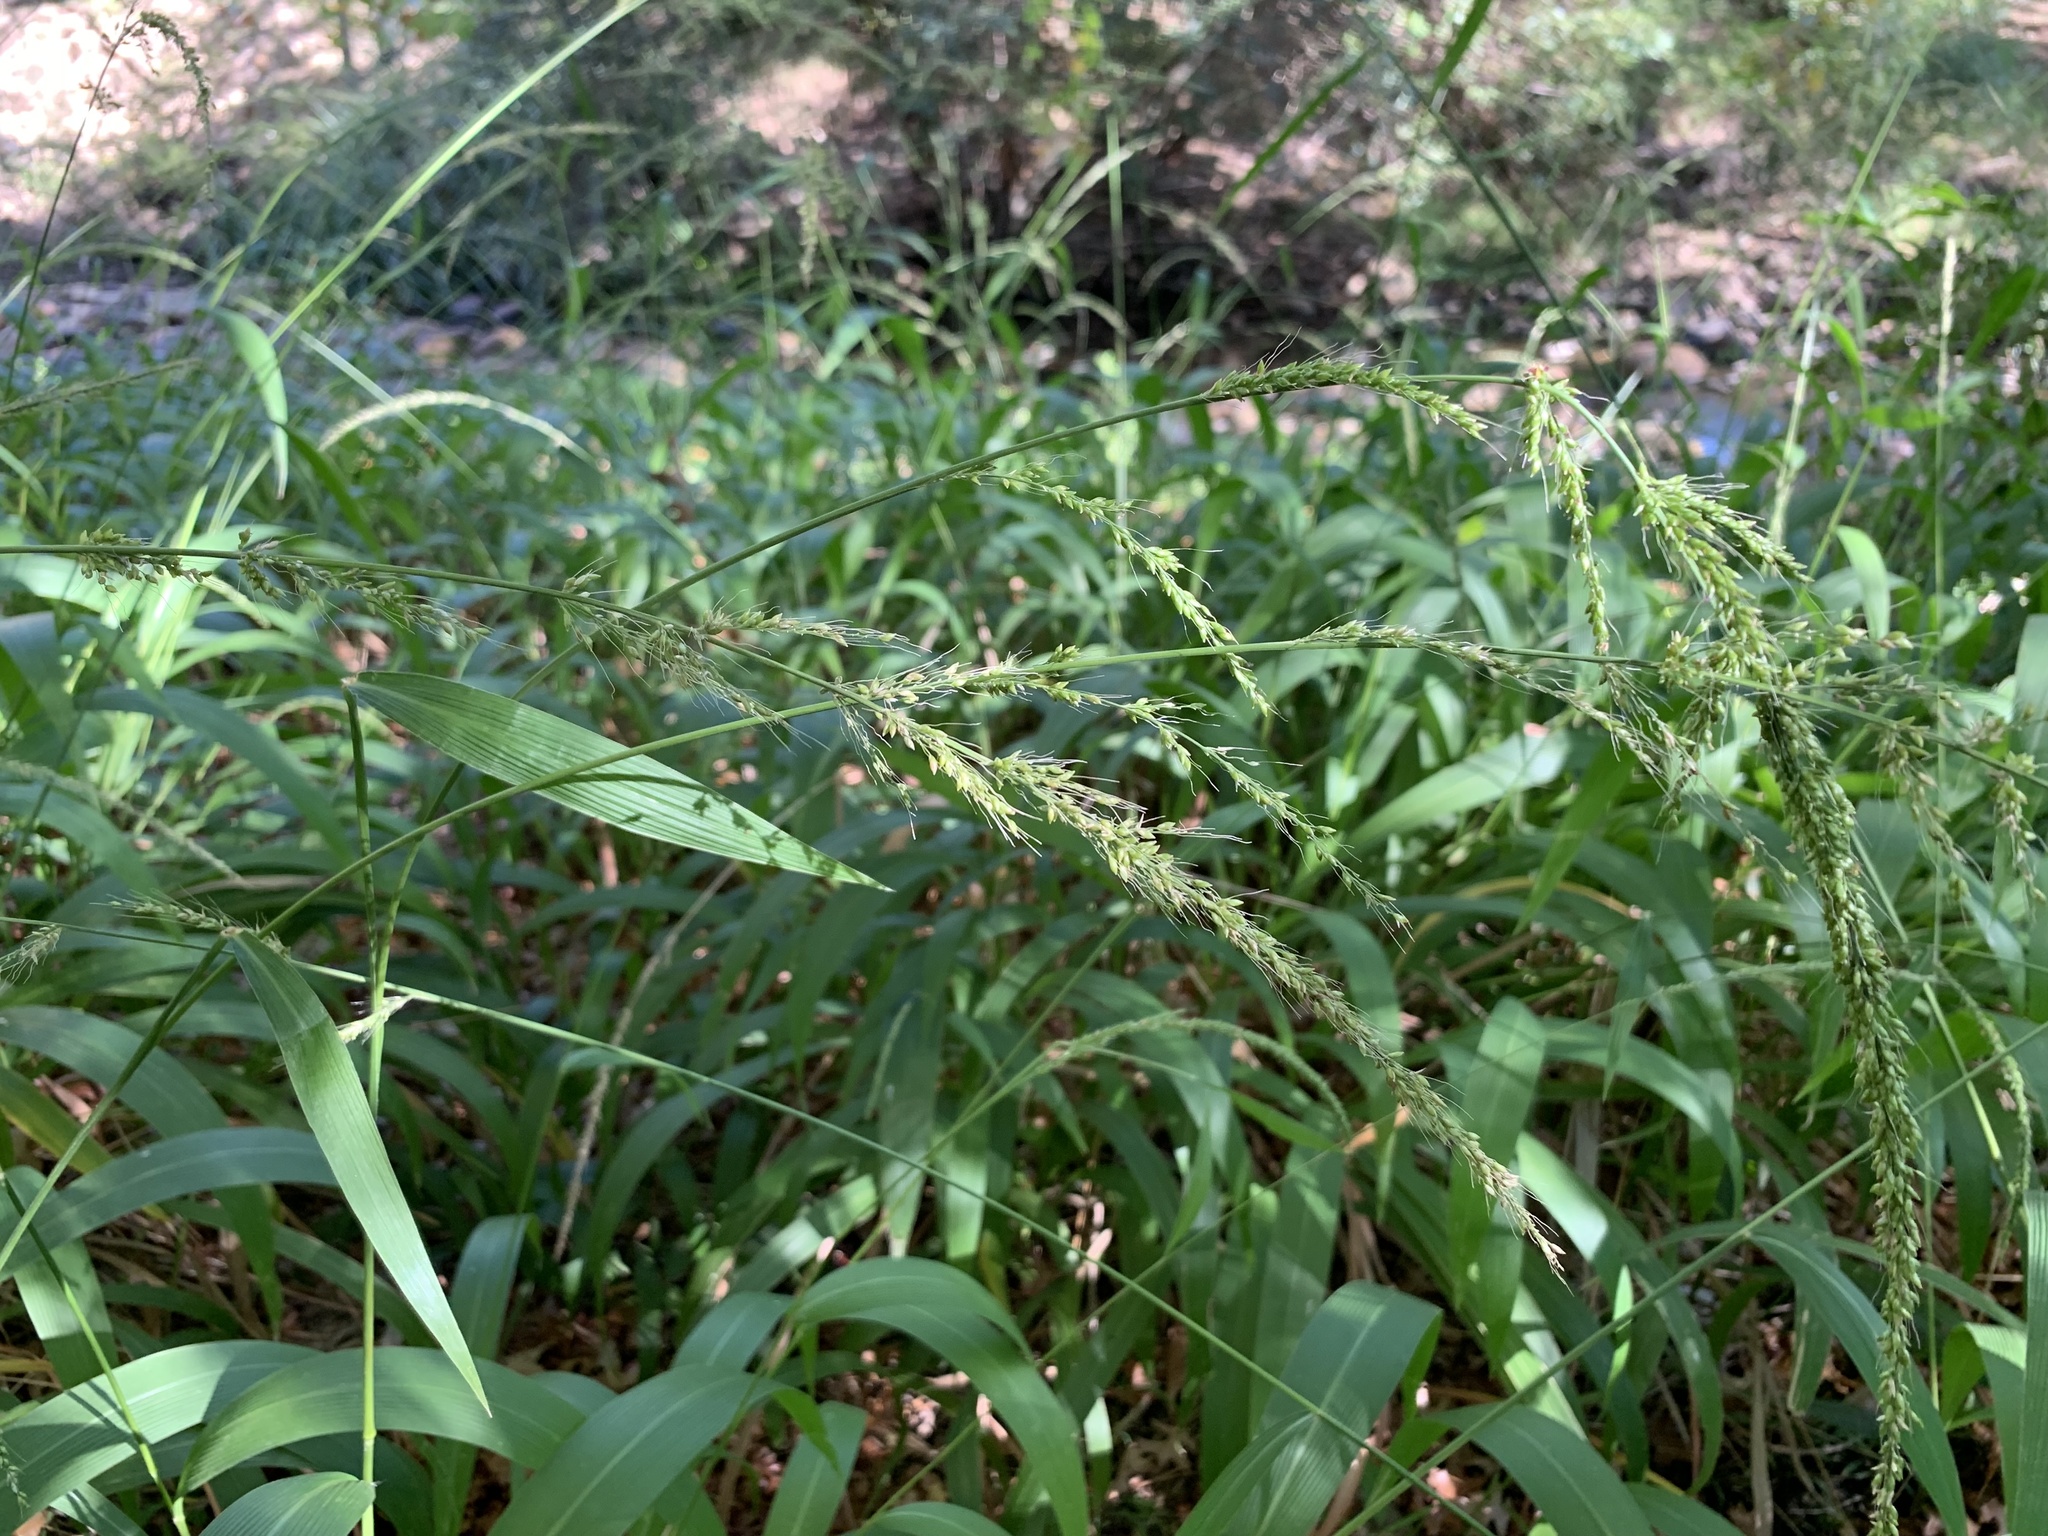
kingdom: Plantae
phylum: Tracheophyta
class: Liliopsida
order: Poales
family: Poaceae
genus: Setaria
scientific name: Setaria megaphylla
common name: Bigleaf bristlegrass
